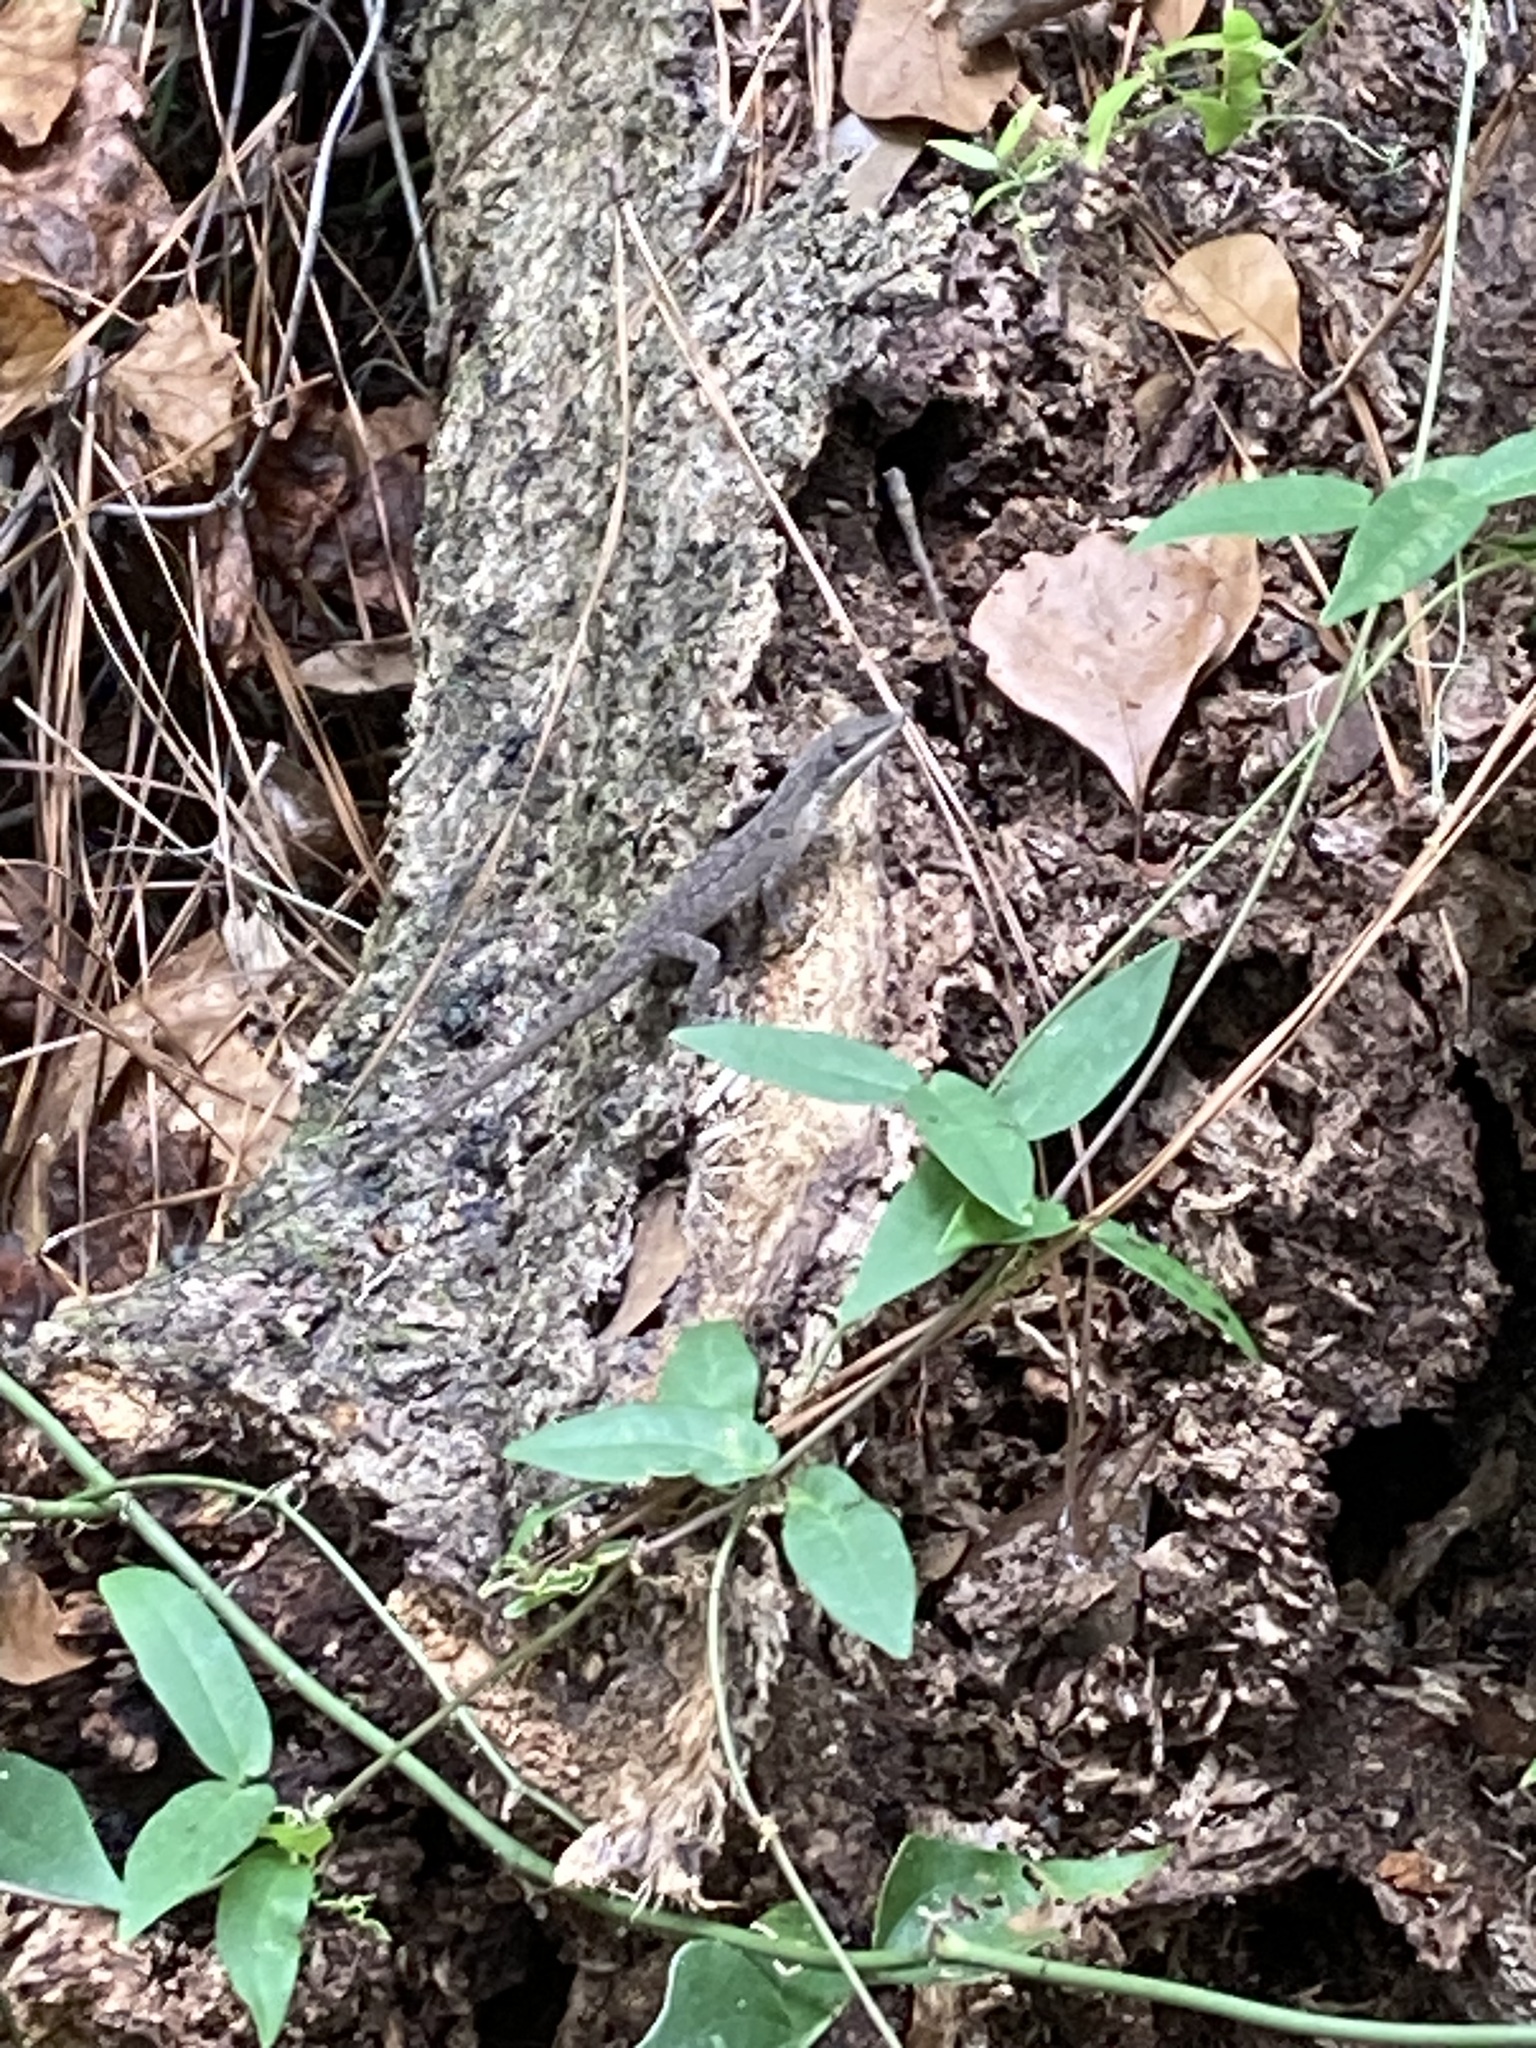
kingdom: Animalia
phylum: Chordata
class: Squamata
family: Dactyloidae
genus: Anolis
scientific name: Anolis carolinensis
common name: Green anole
